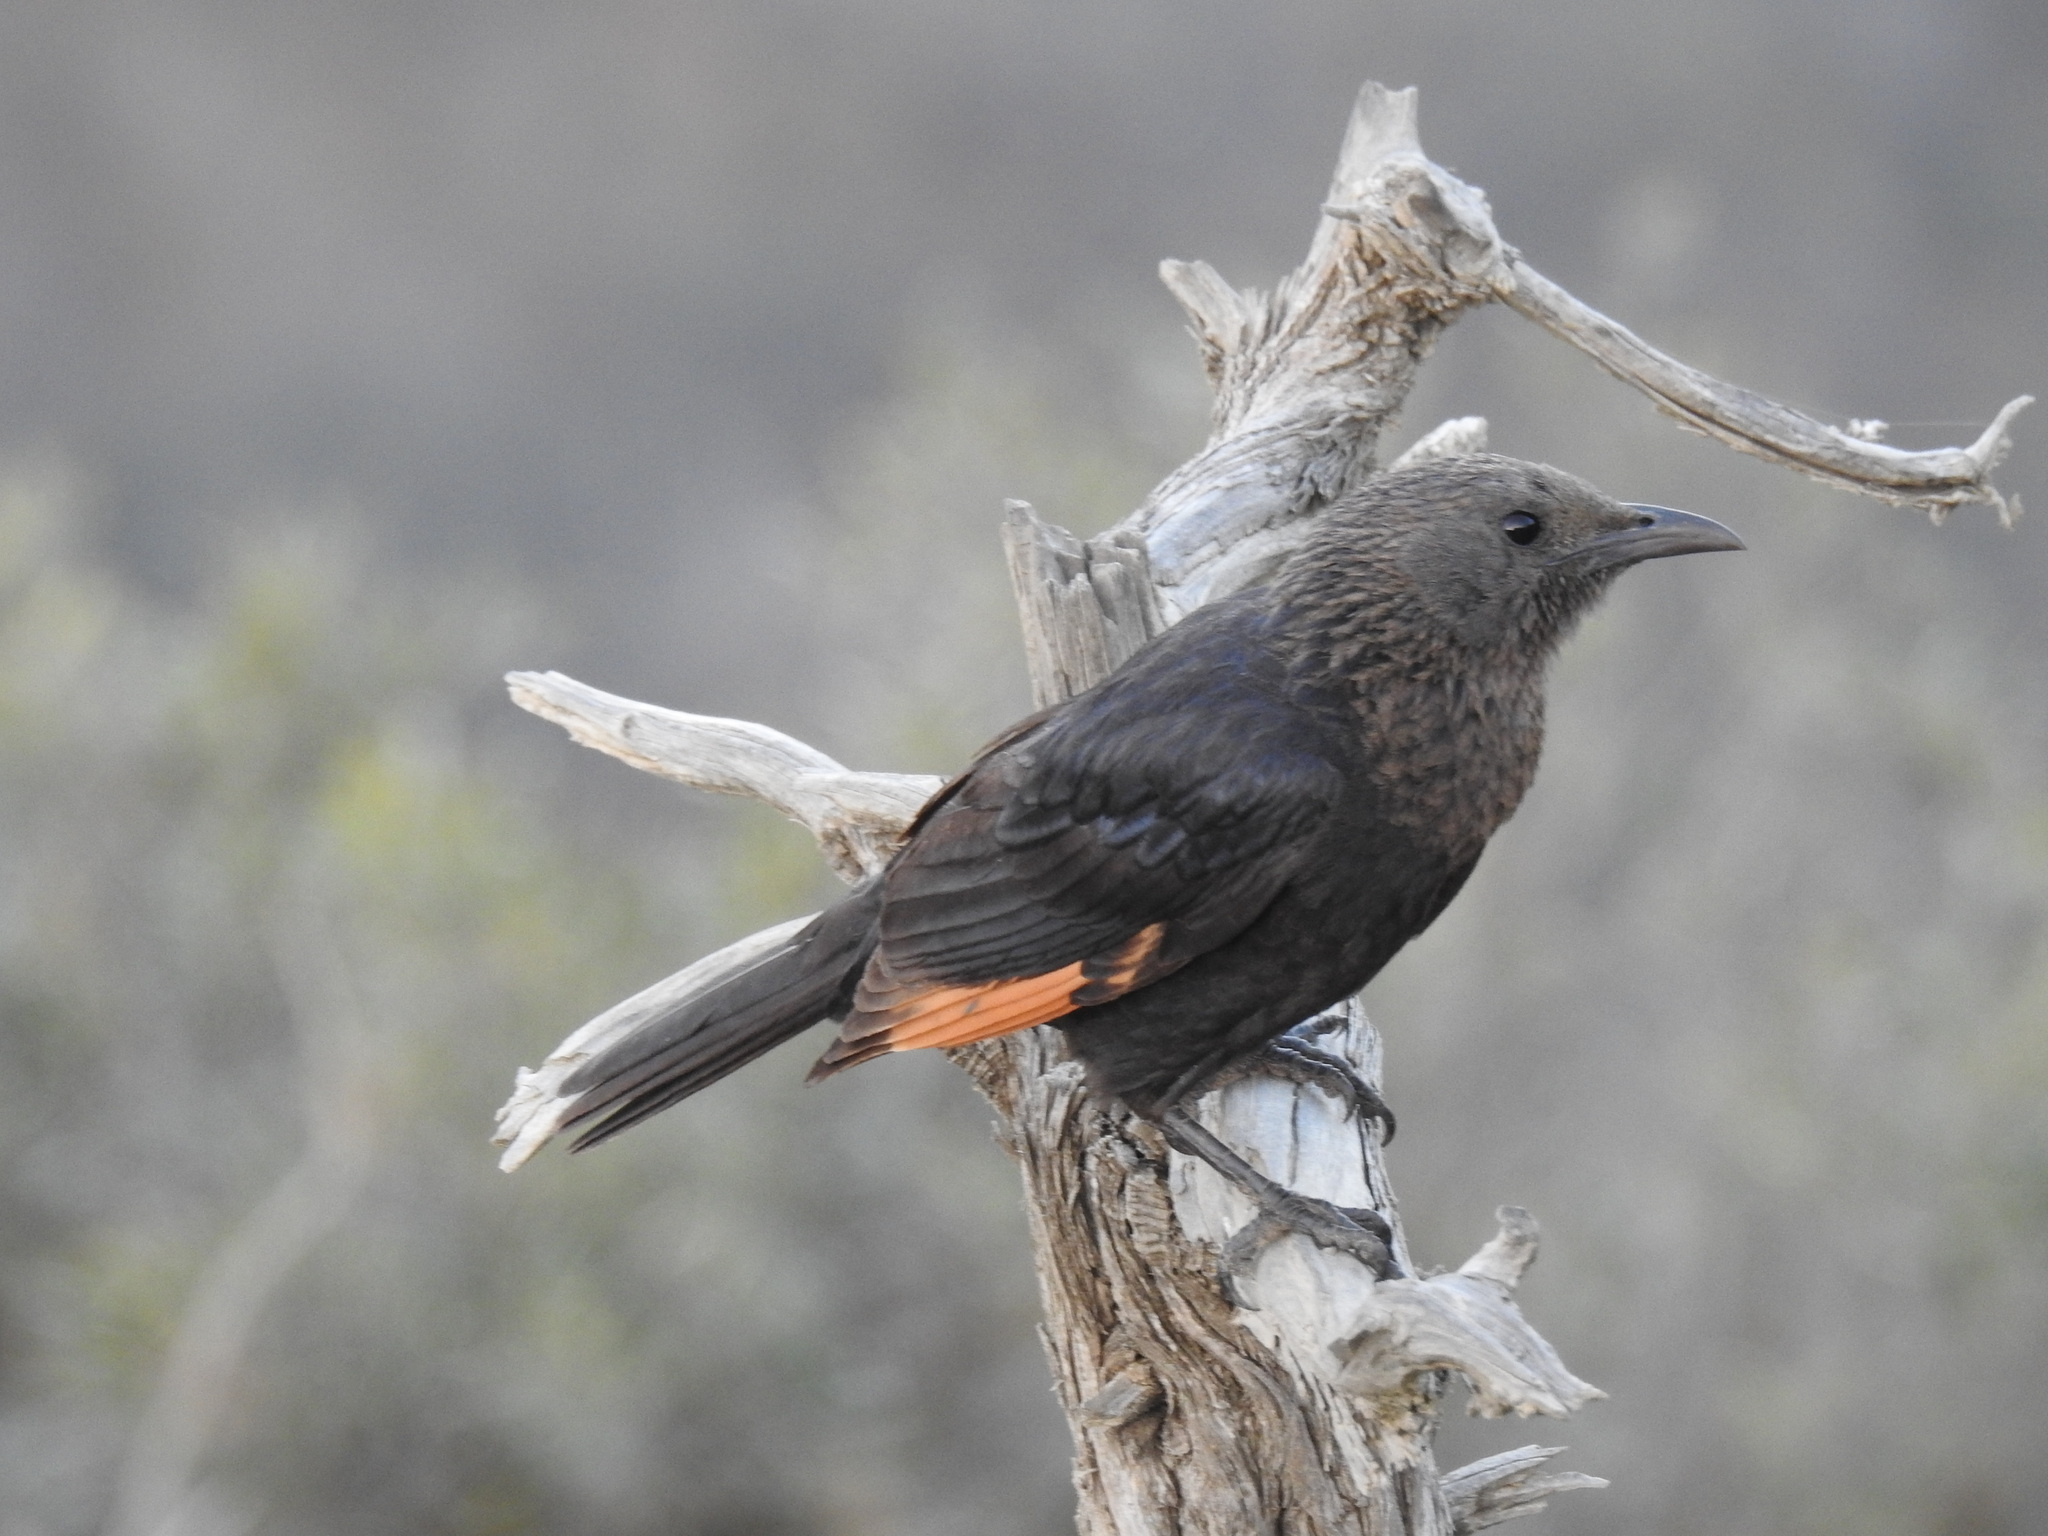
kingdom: Animalia
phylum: Chordata
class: Aves
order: Passeriformes
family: Sturnidae
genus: Onychognathus
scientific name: Onychognathus tristramii
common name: Tristram's starling
